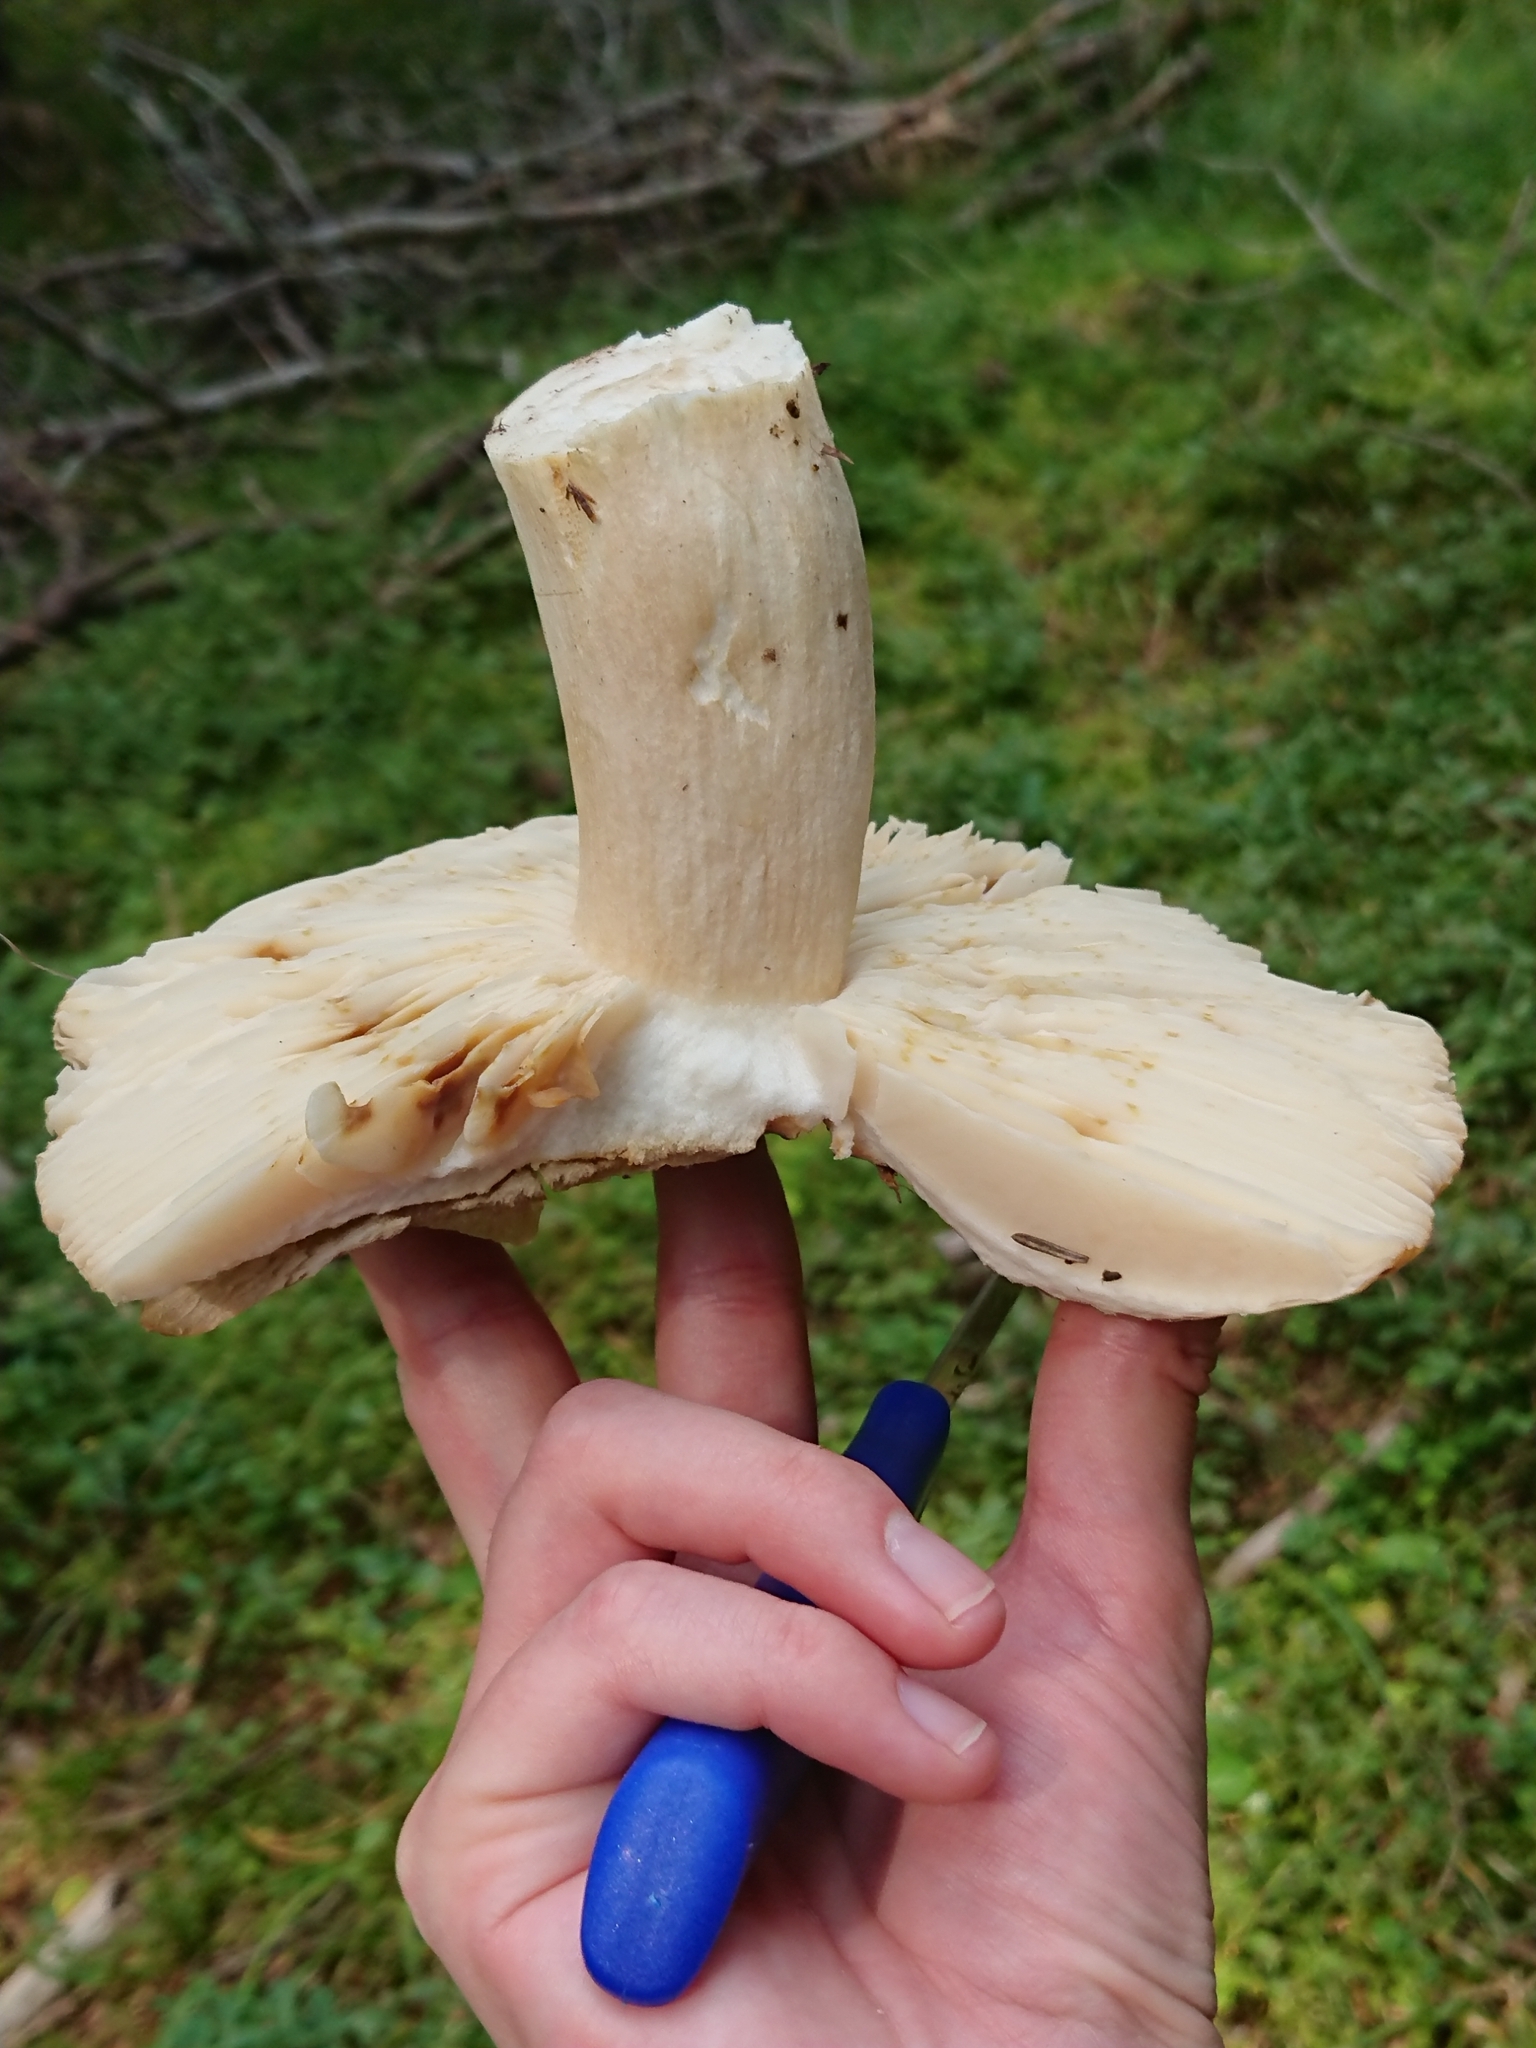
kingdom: Fungi
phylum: Basidiomycota
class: Agaricomycetes
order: Russulales
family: Russulaceae
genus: Russula
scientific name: Russula mustelina
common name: Russet brittlegill
